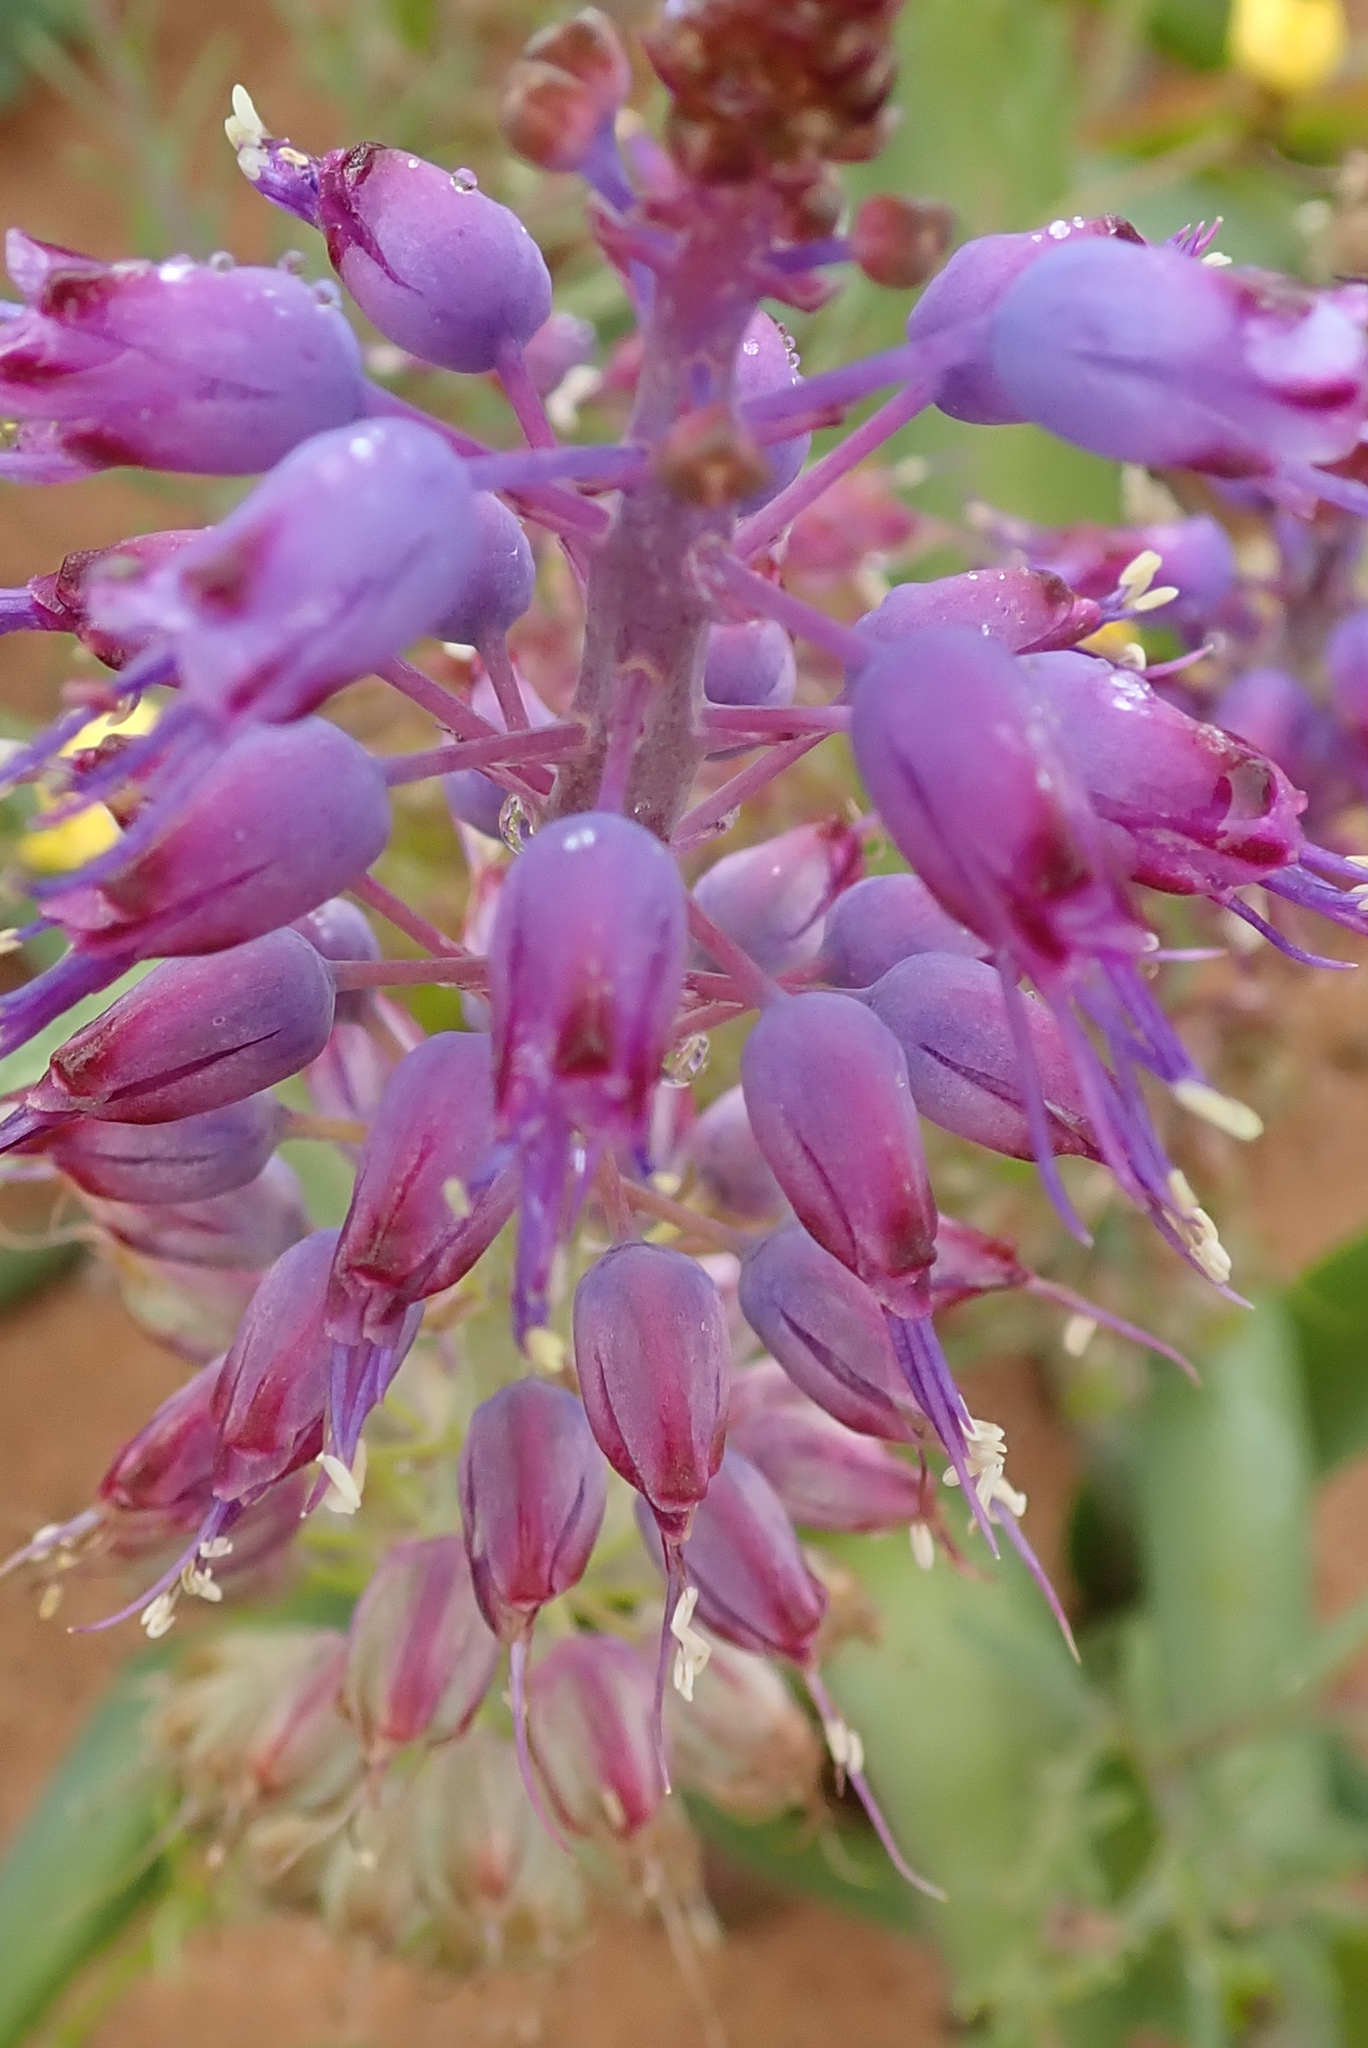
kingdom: Plantae
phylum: Tracheophyta
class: Liliopsida
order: Asparagales
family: Asparagaceae
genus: Lachenalia
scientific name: Lachenalia pallida
